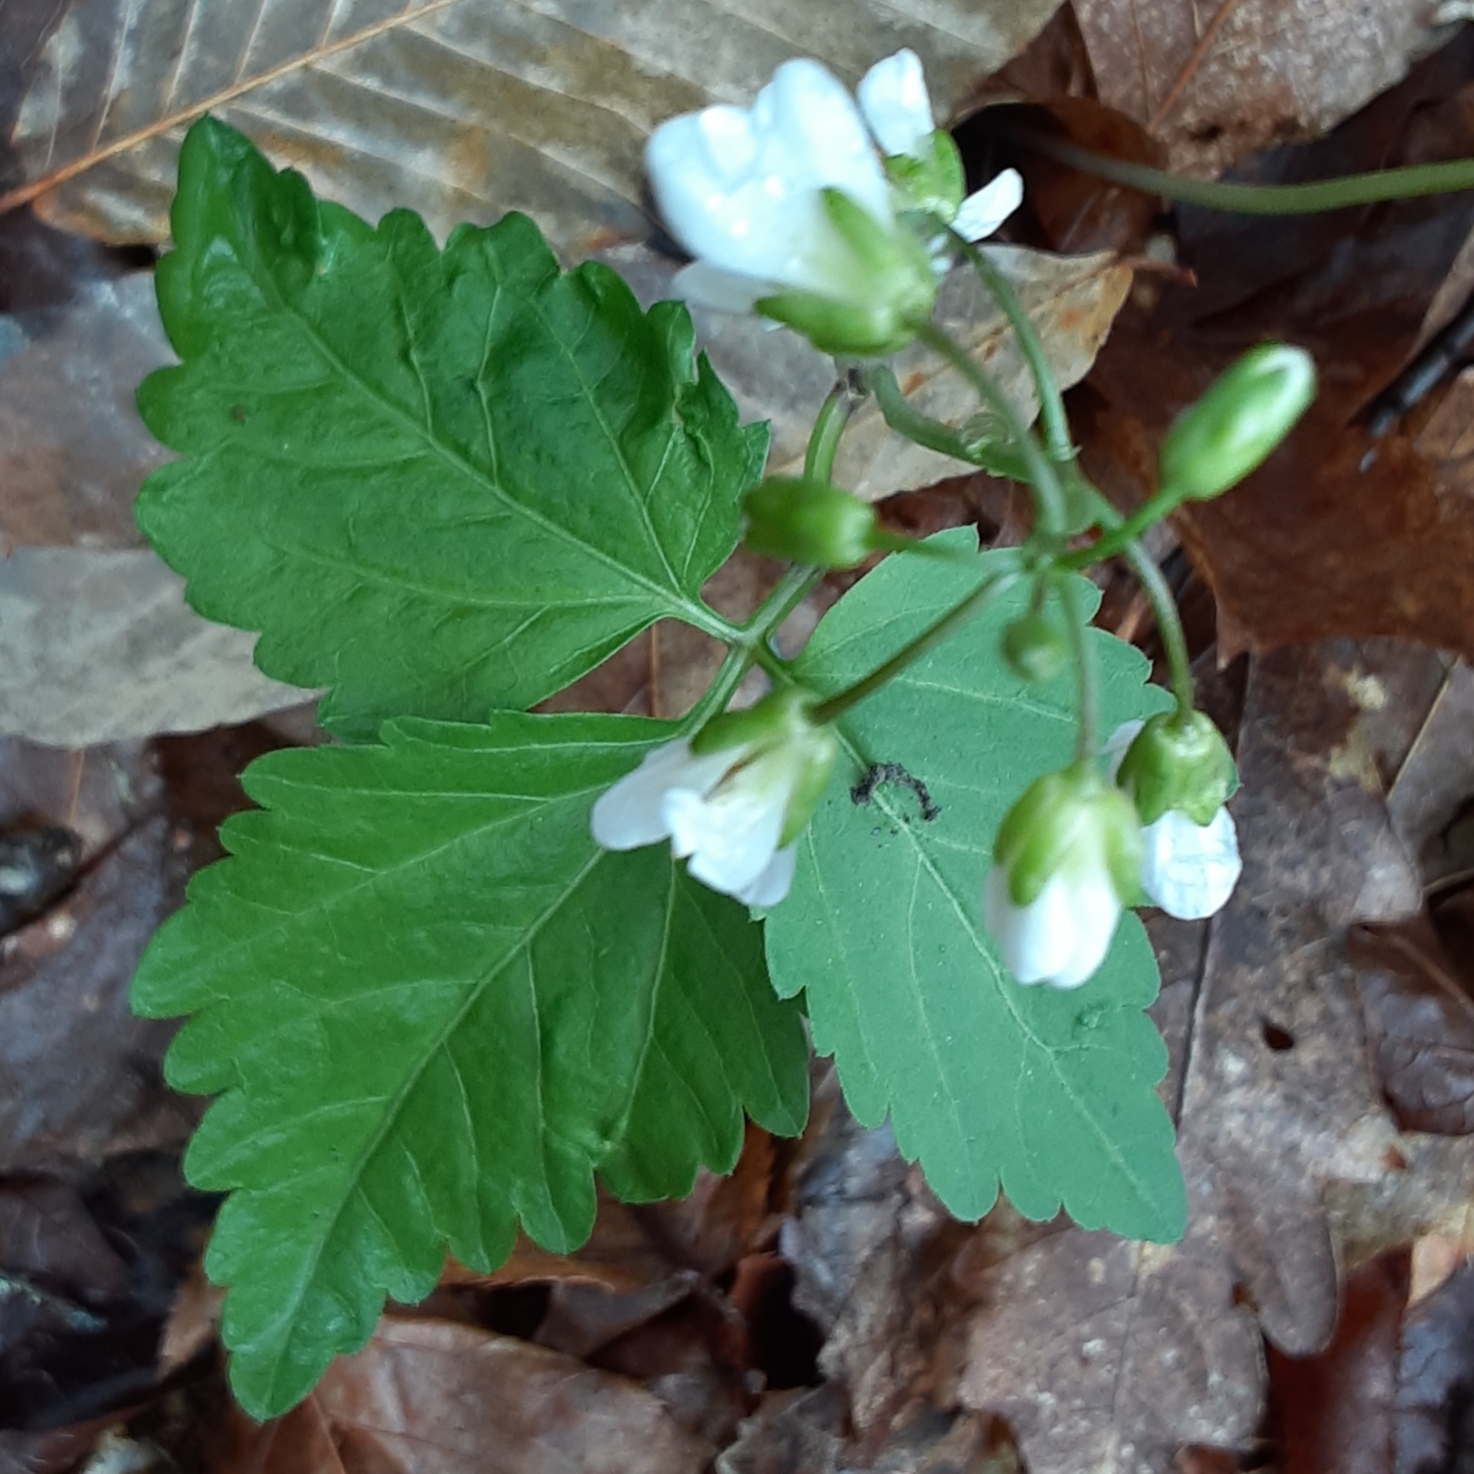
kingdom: Plantae
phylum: Tracheophyta
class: Magnoliopsida
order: Brassicales
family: Brassicaceae
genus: Cardamine
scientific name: Cardamine diphylla
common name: Broad-leaved toothwort
